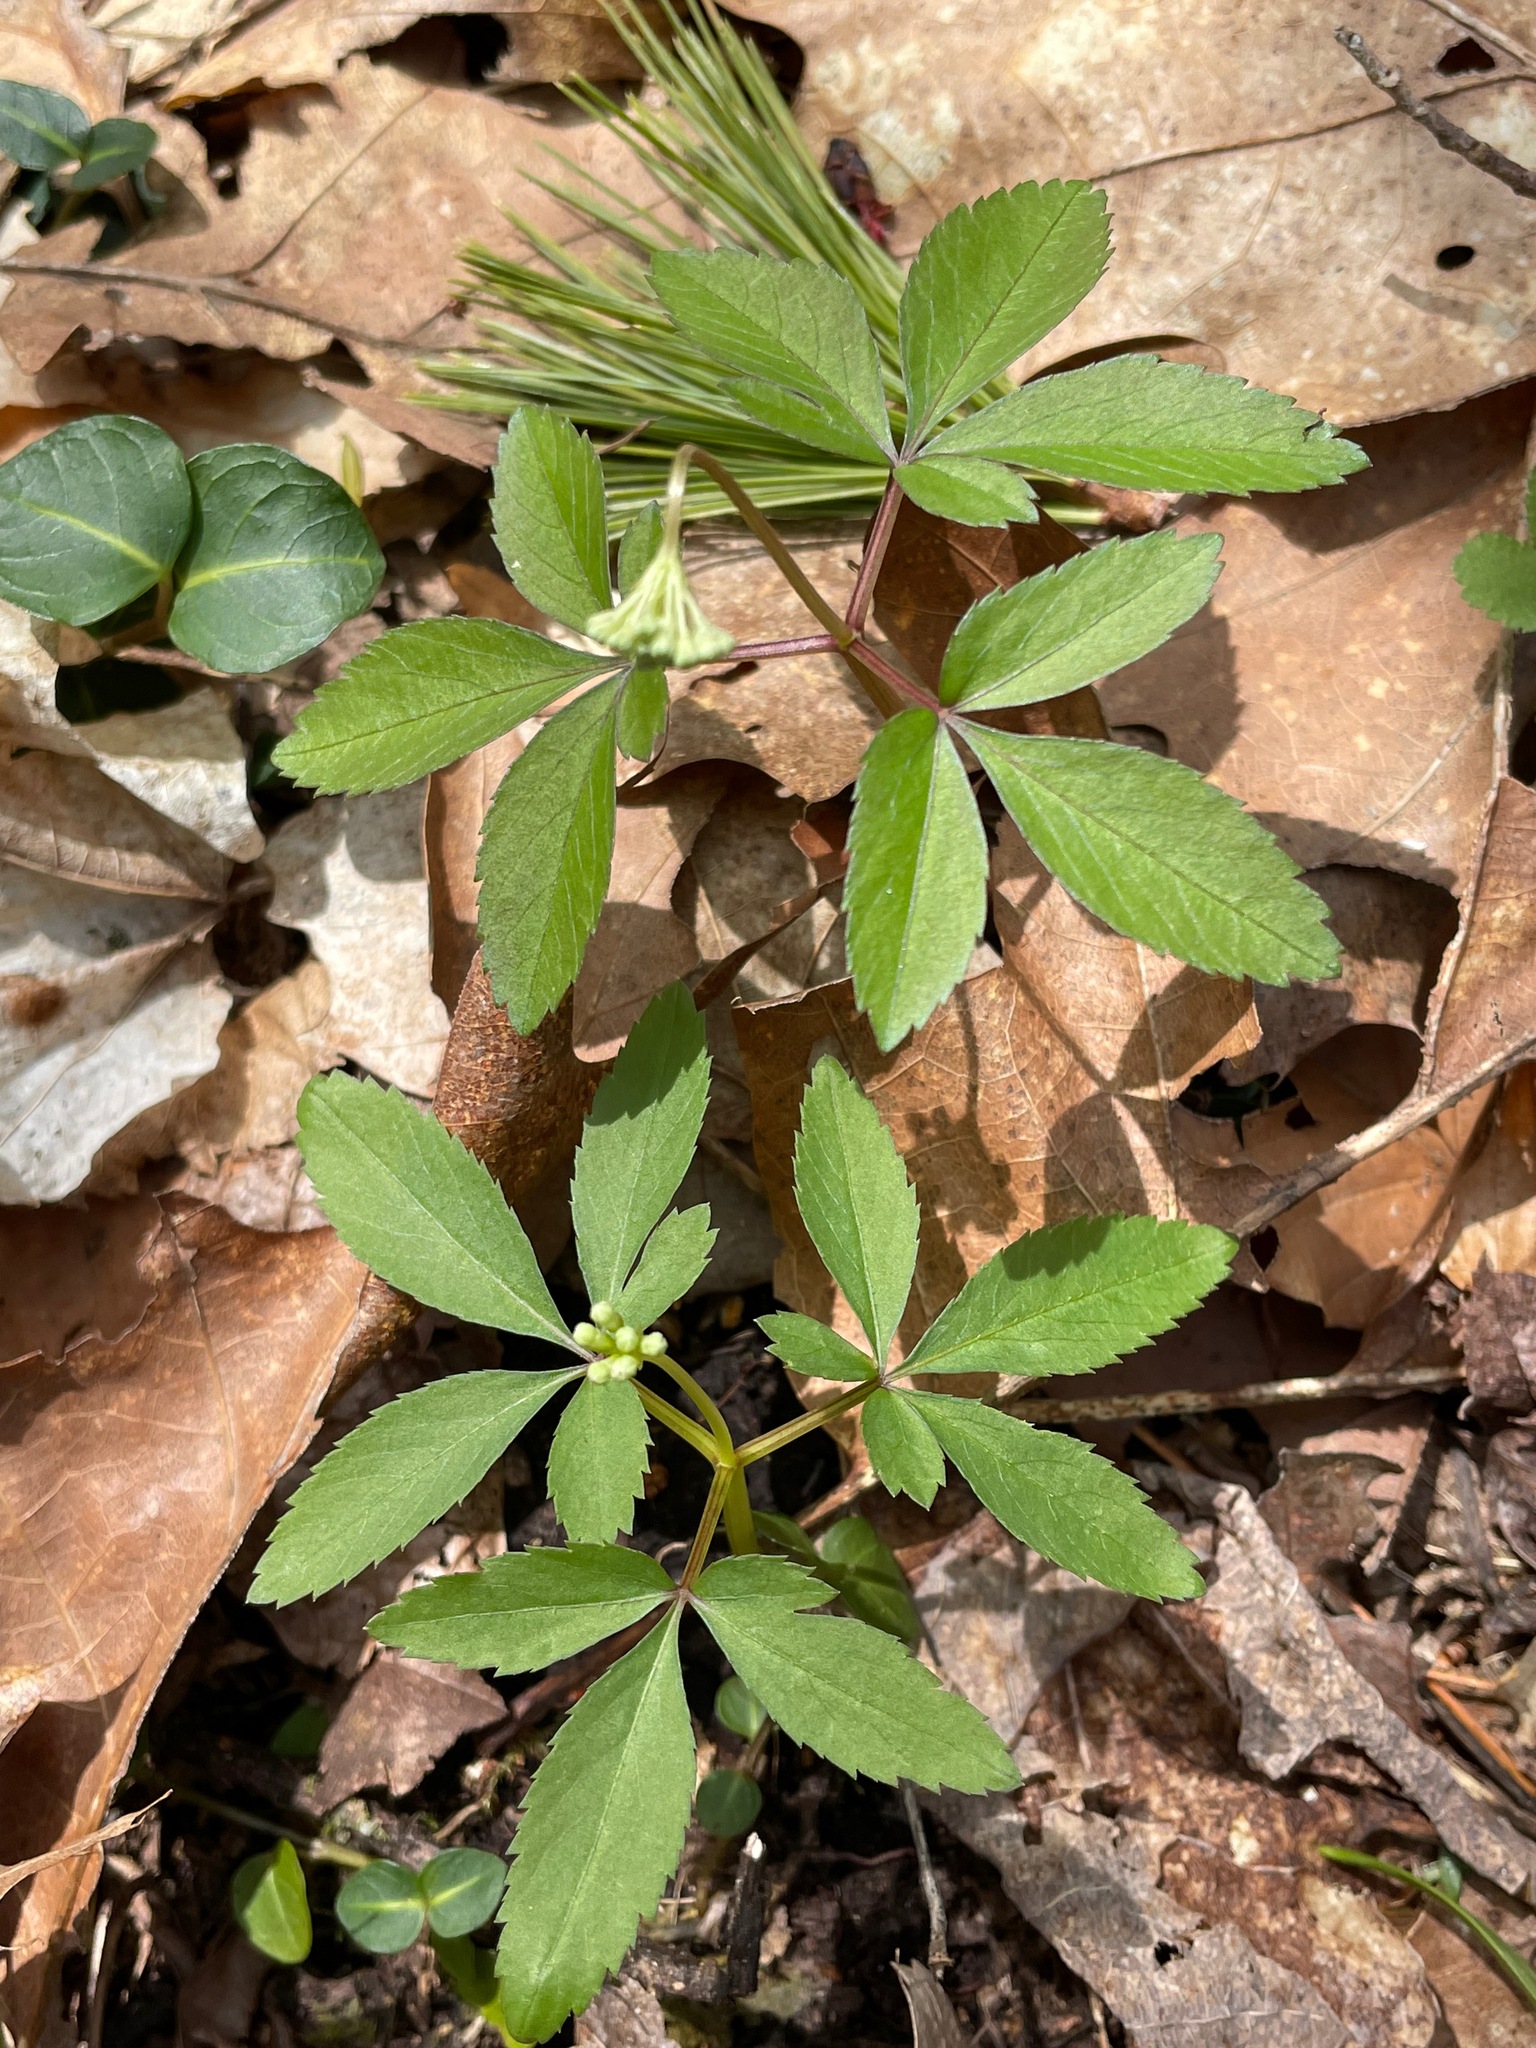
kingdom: Plantae
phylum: Tracheophyta
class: Magnoliopsida
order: Apiales
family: Araliaceae
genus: Panax
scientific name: Panax trifolius
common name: Dwarf ginseng
